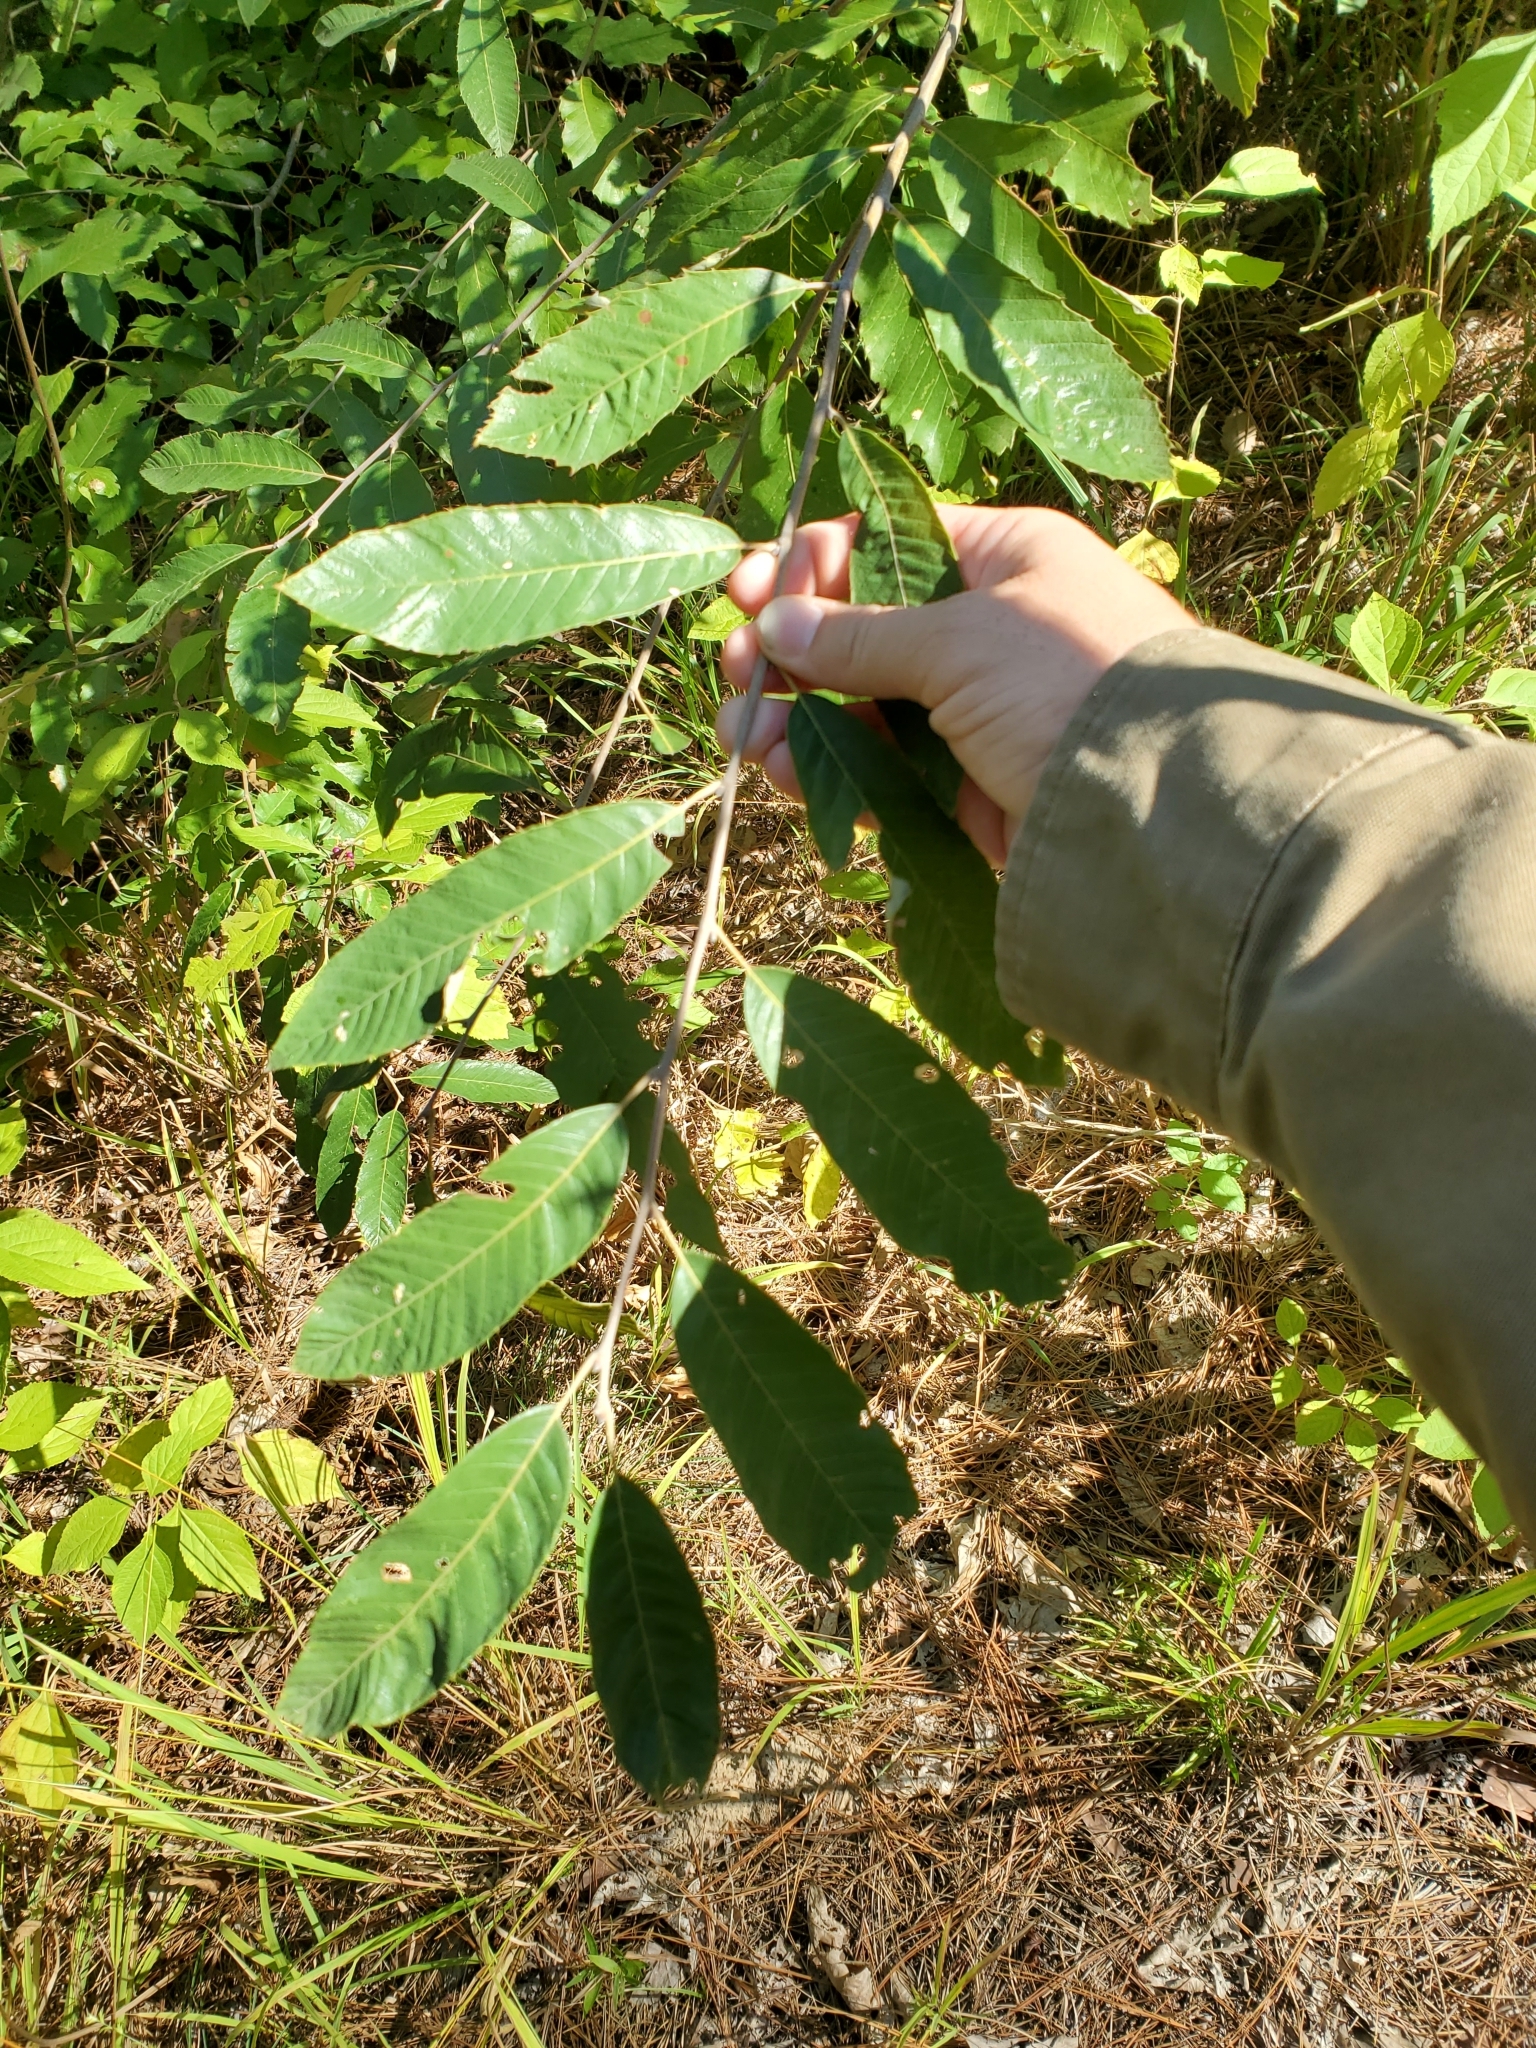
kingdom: Plantae
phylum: Tracheophyta
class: Magnoliopsida
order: Fagales
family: Fagaceae
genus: Castanea
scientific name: Castanea pumila
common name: Chinkapin
